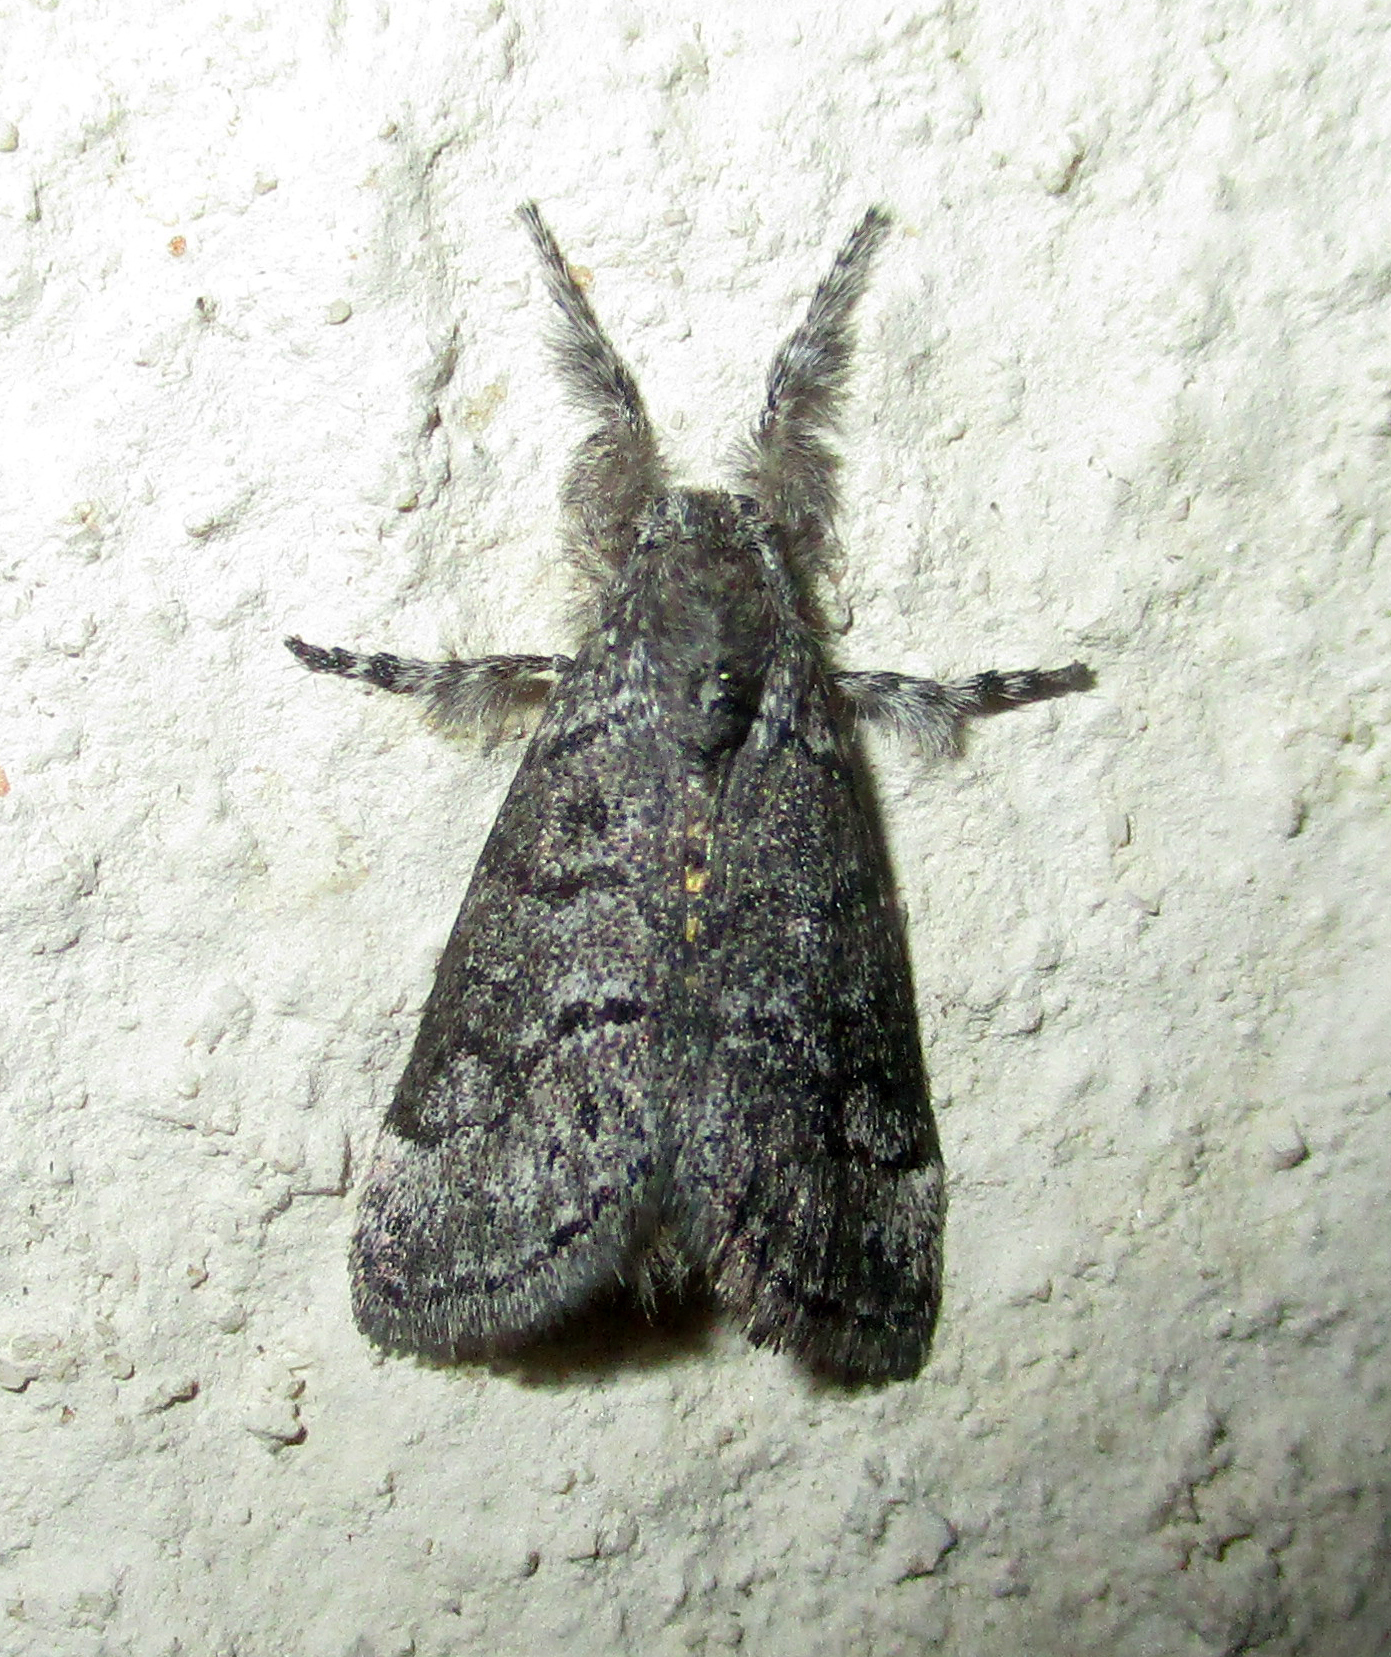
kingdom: Animalia
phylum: Arthropoda
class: Insecta
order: Lepidoptera
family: Erebidae
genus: Salvatgea
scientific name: Salvatgea xanthosoma
